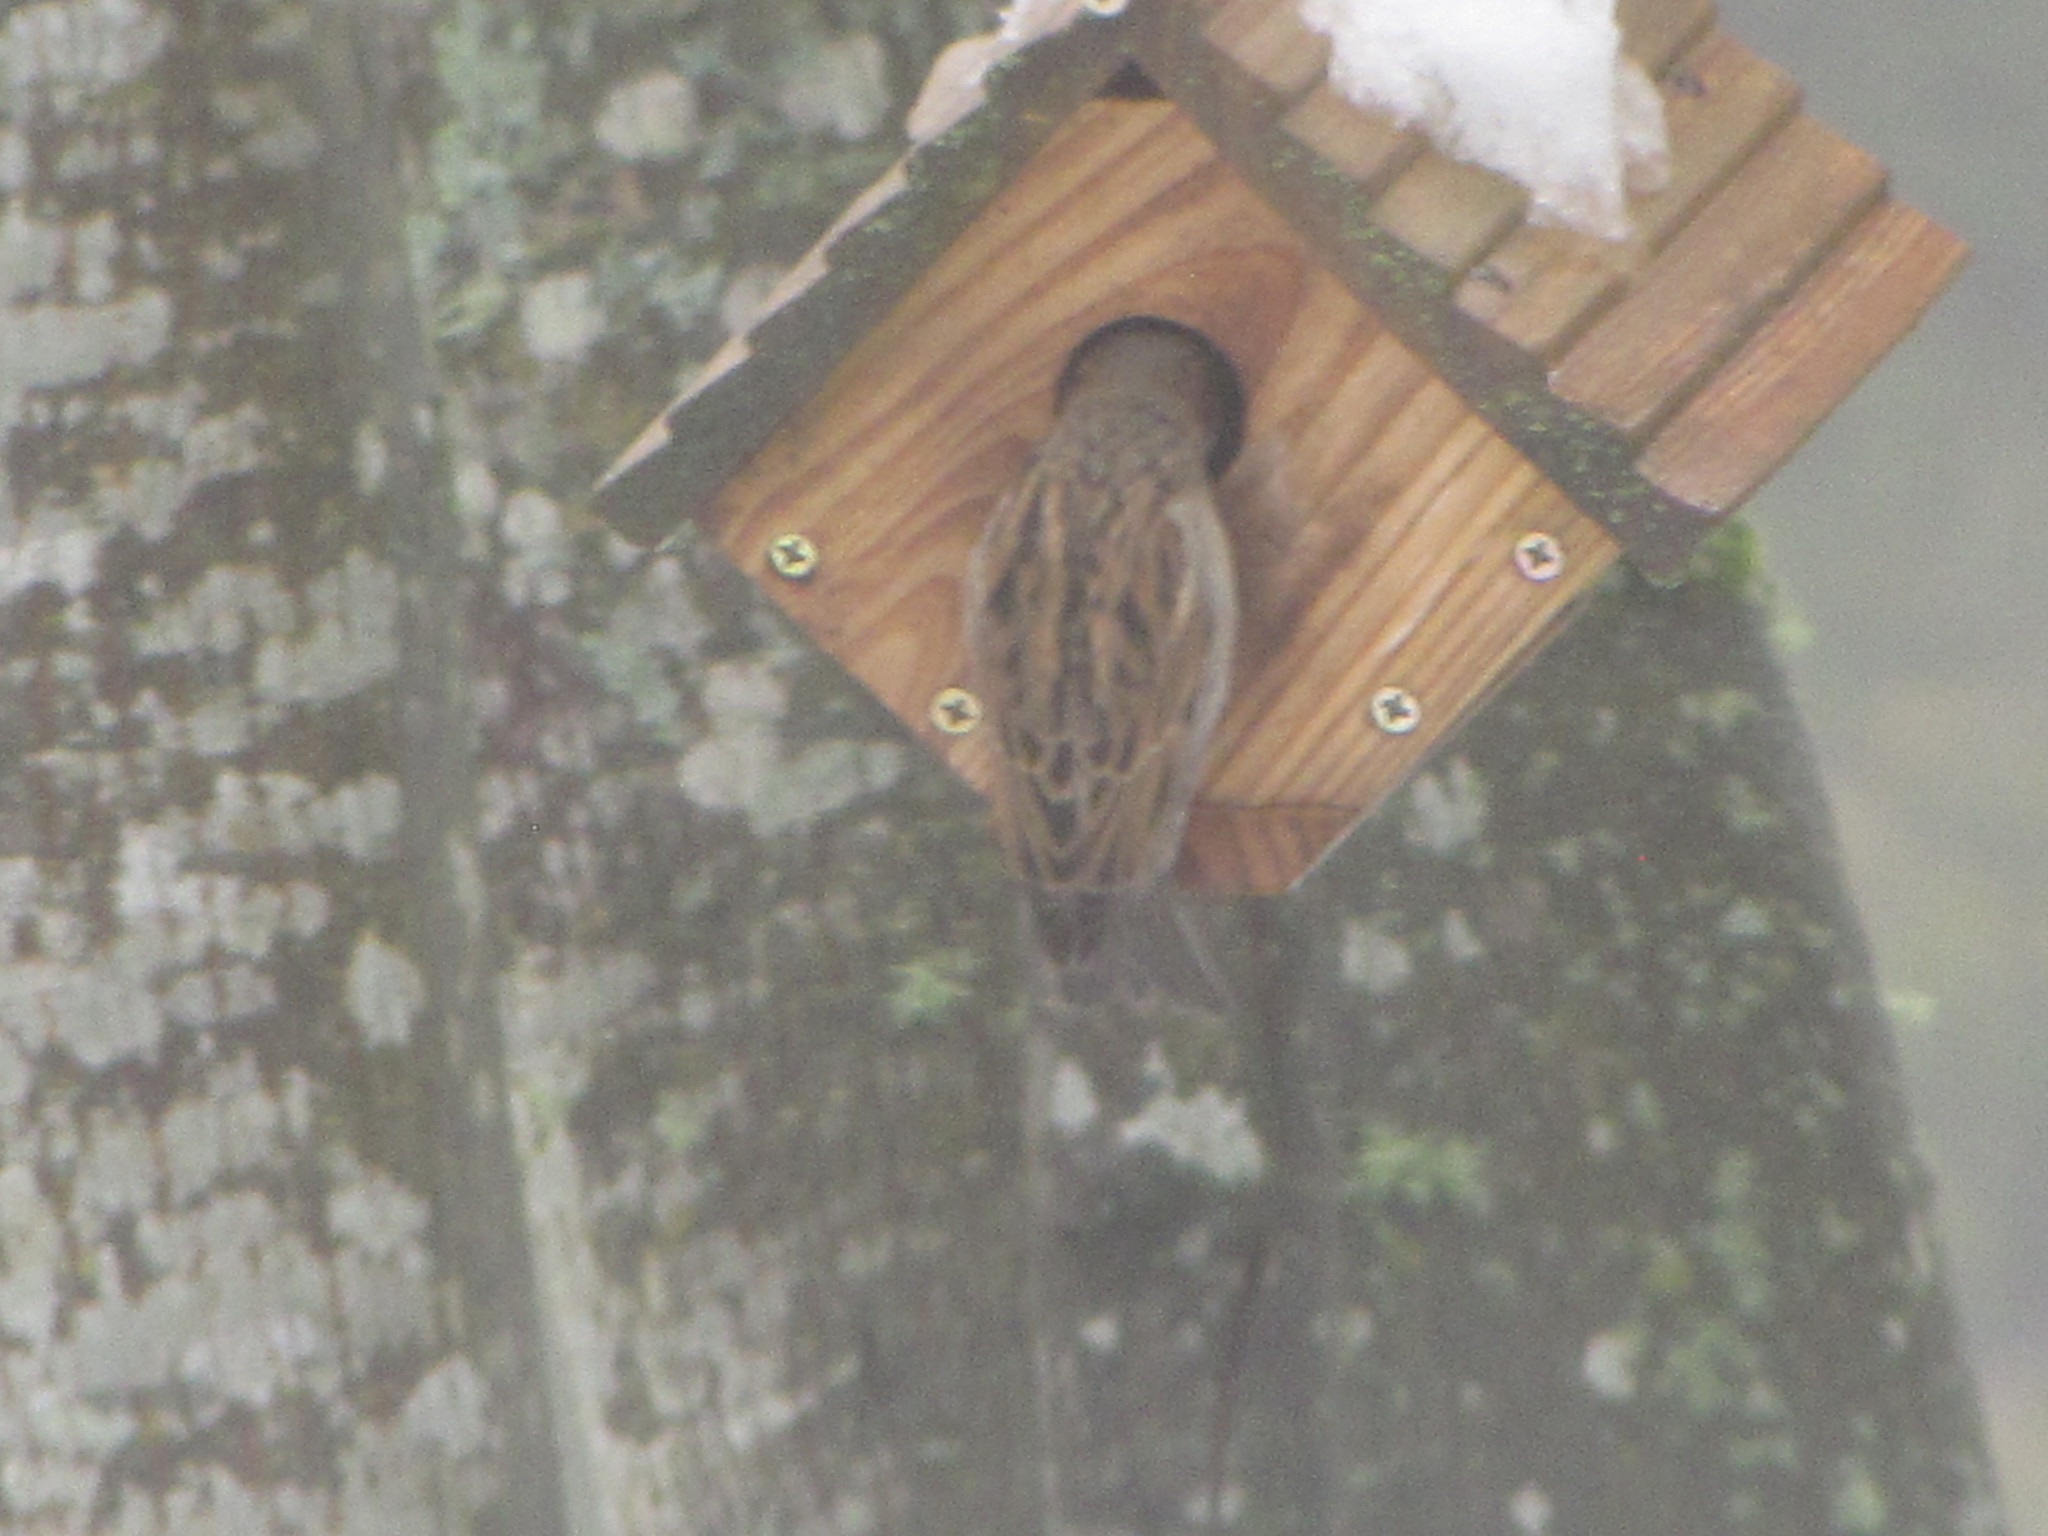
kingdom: Animalia
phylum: Chordata
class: Aves
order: Passeriformes
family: Passeridae
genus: Passer
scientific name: Passer domesticus
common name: House sparrow
